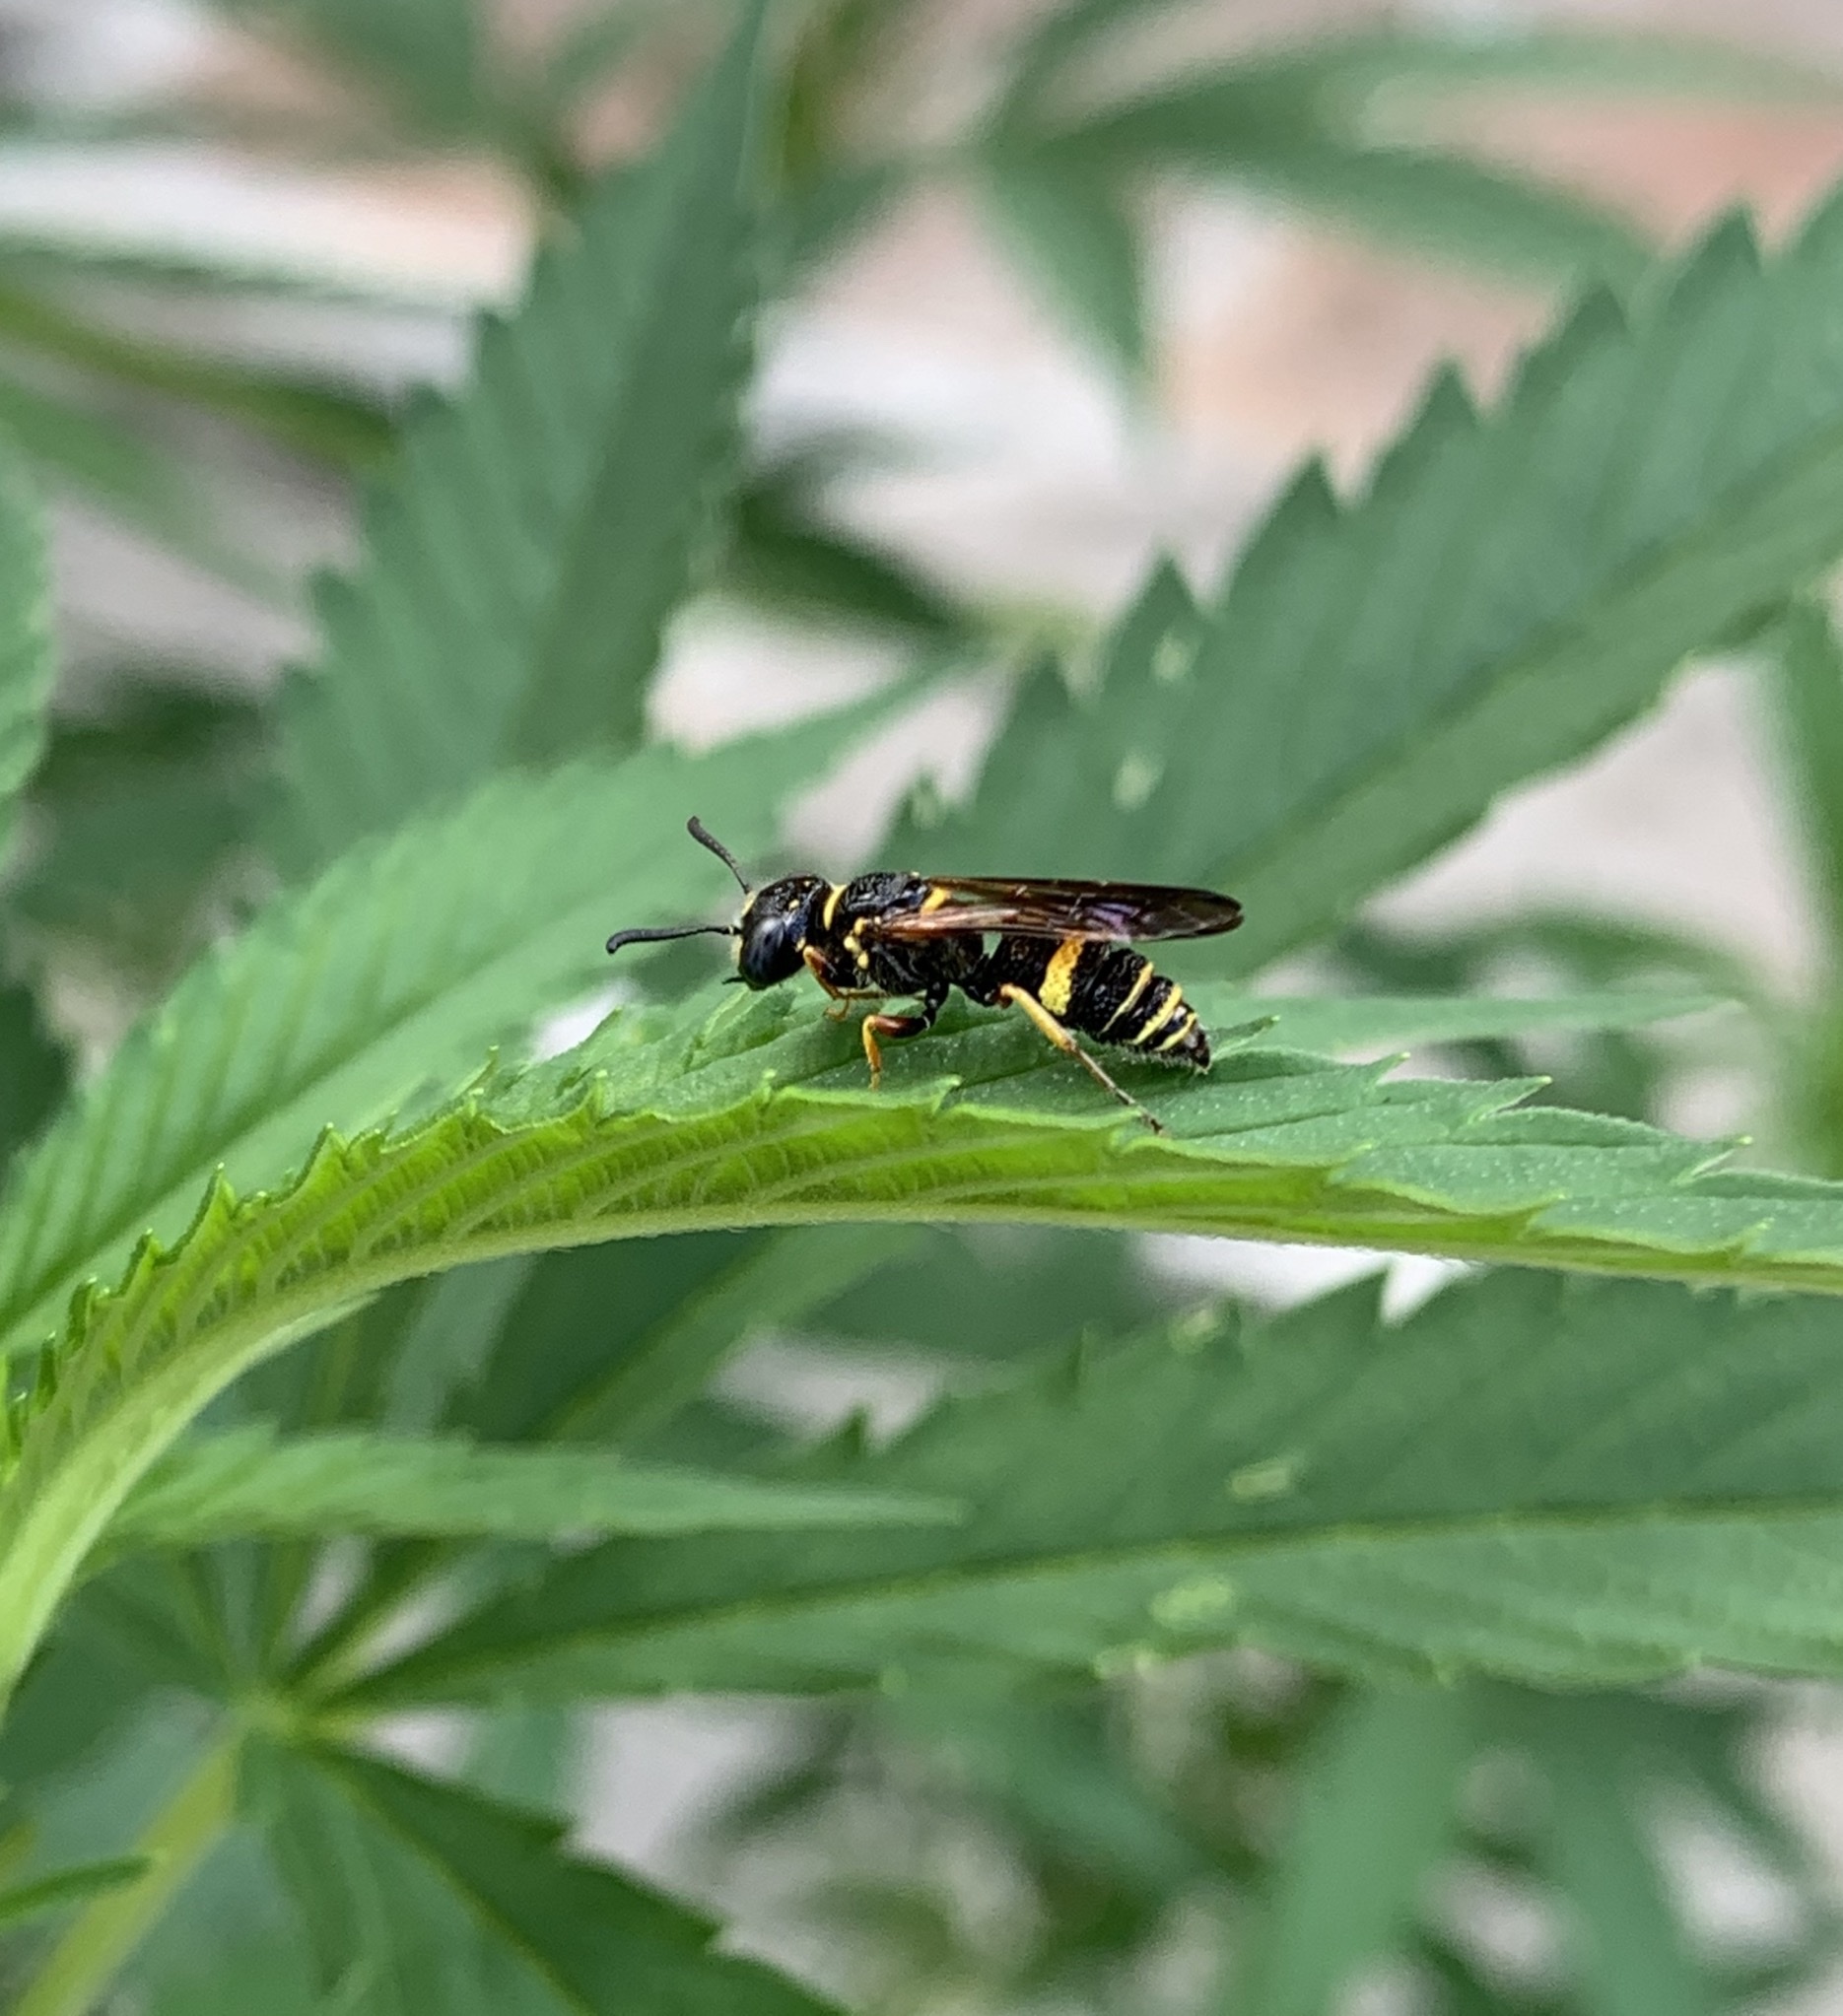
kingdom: Animalia
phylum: Arthropoda
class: Insecta
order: Hymenoptera
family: Crabronidae
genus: Philanthus
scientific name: Philanthus gibbosus
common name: Humped beewolf
